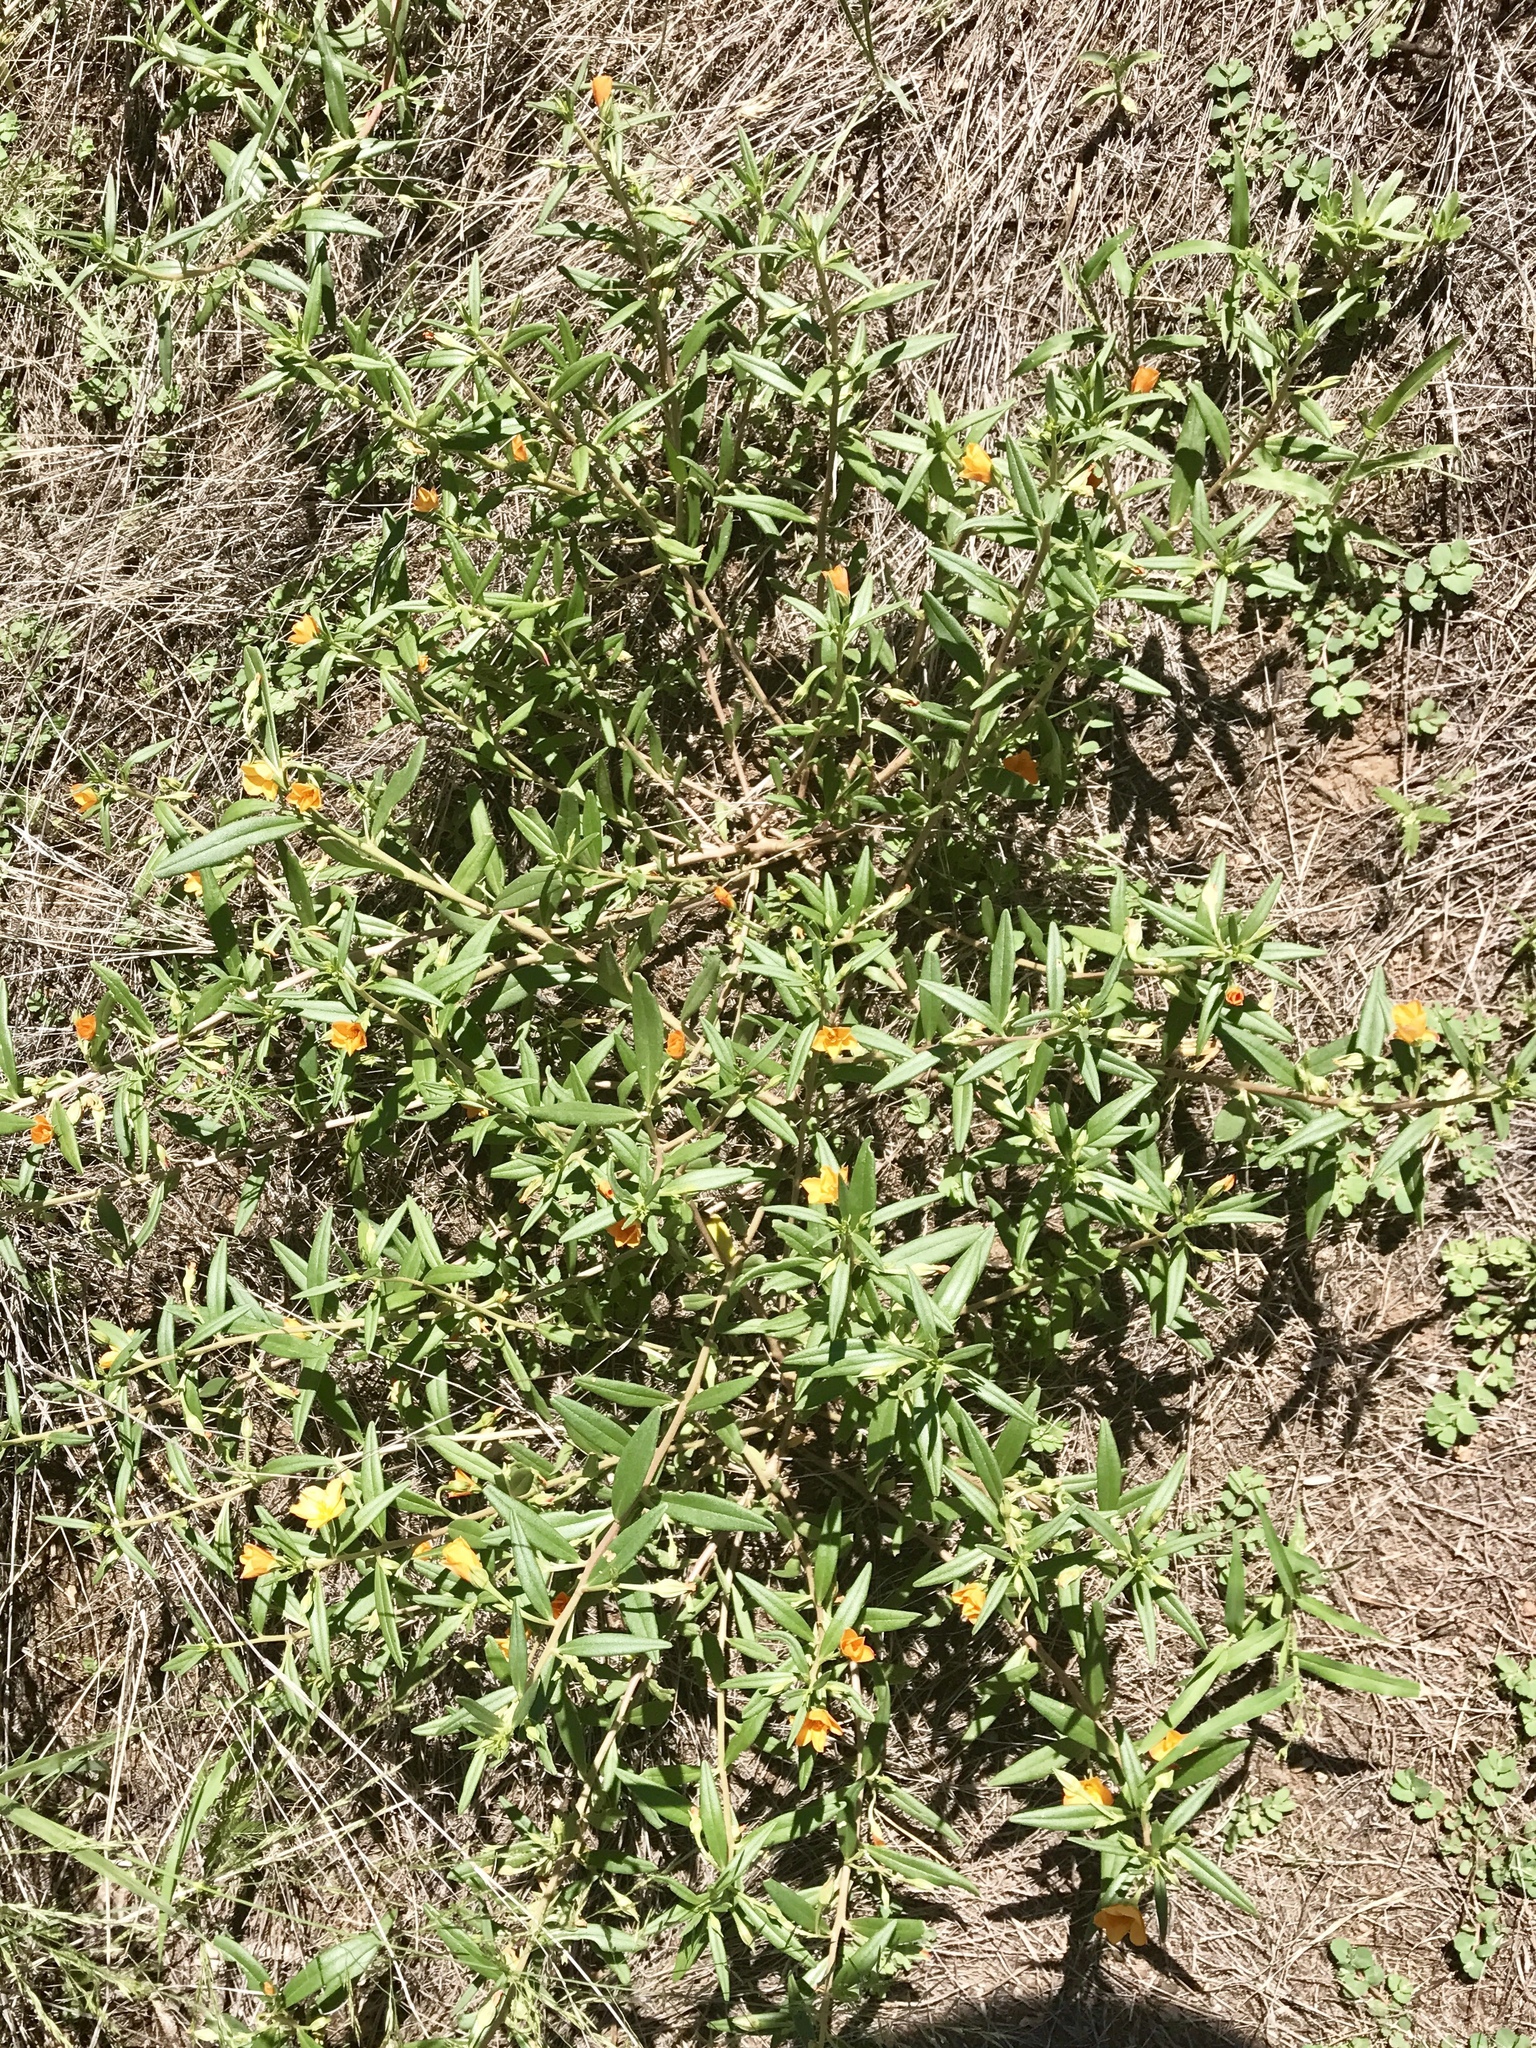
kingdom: Plantae
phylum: Tracheophyta
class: Magnoliopsida
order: Caryophyllales
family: Montiaceae
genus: Phemeranthus
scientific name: Phemeranthus aurantiacus
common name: Orange fameflower
